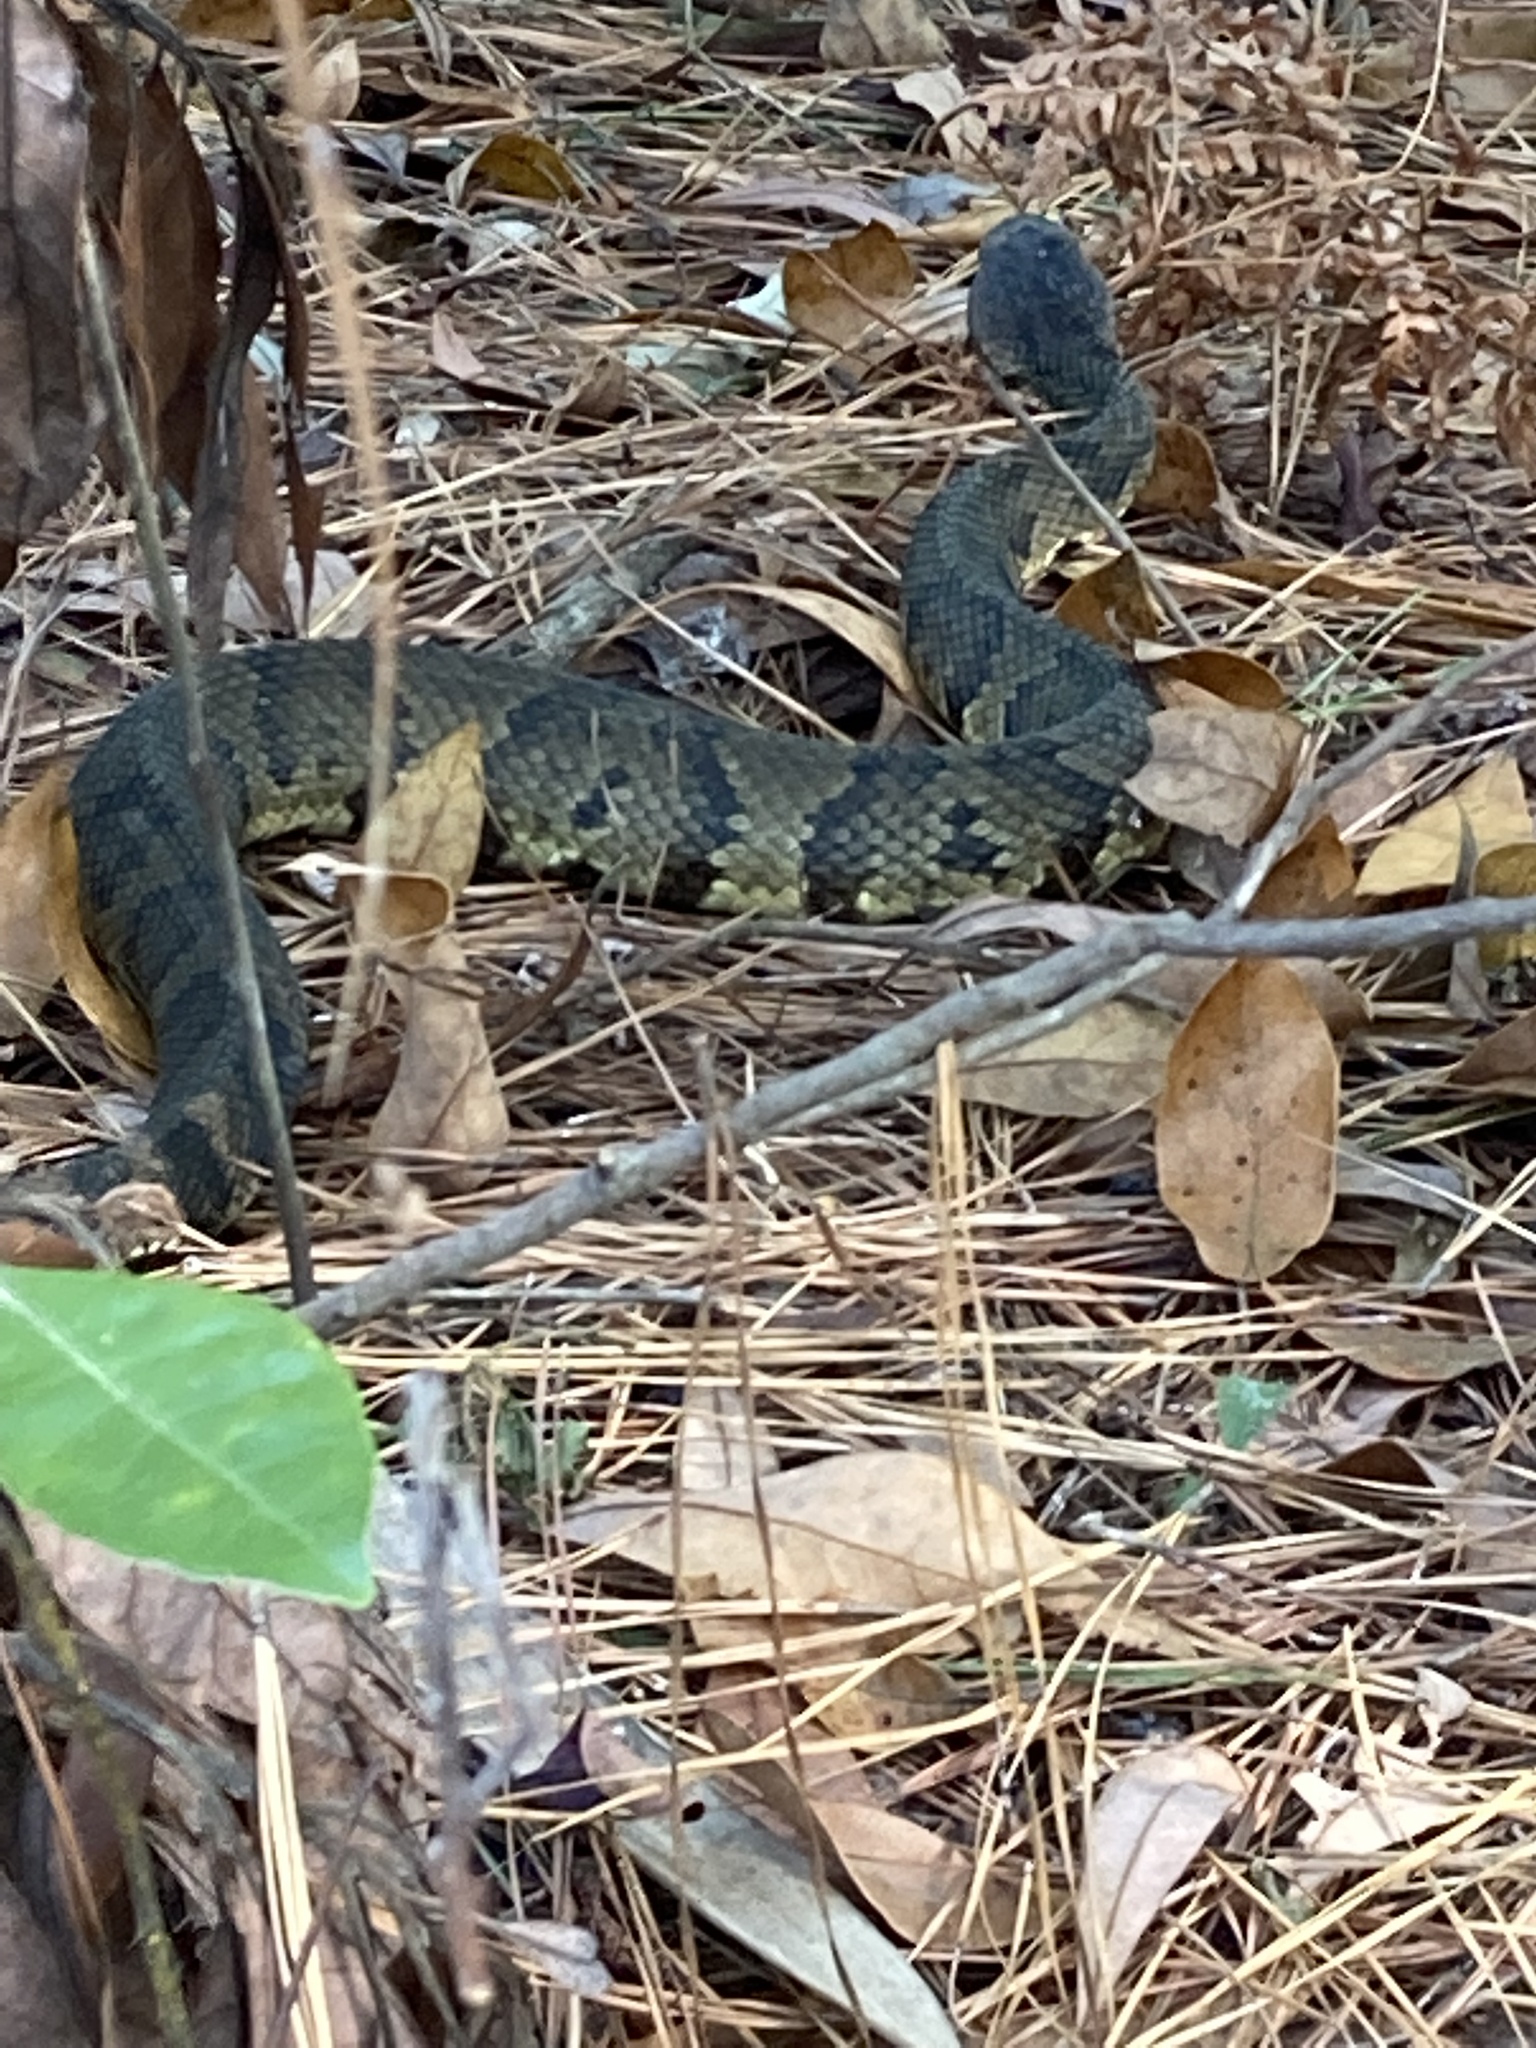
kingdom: Animalia
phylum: Chordata
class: Squamata
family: Viperidae
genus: Agkistrodon
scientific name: Agkistrodon piscivorus
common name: Cottonmouth
